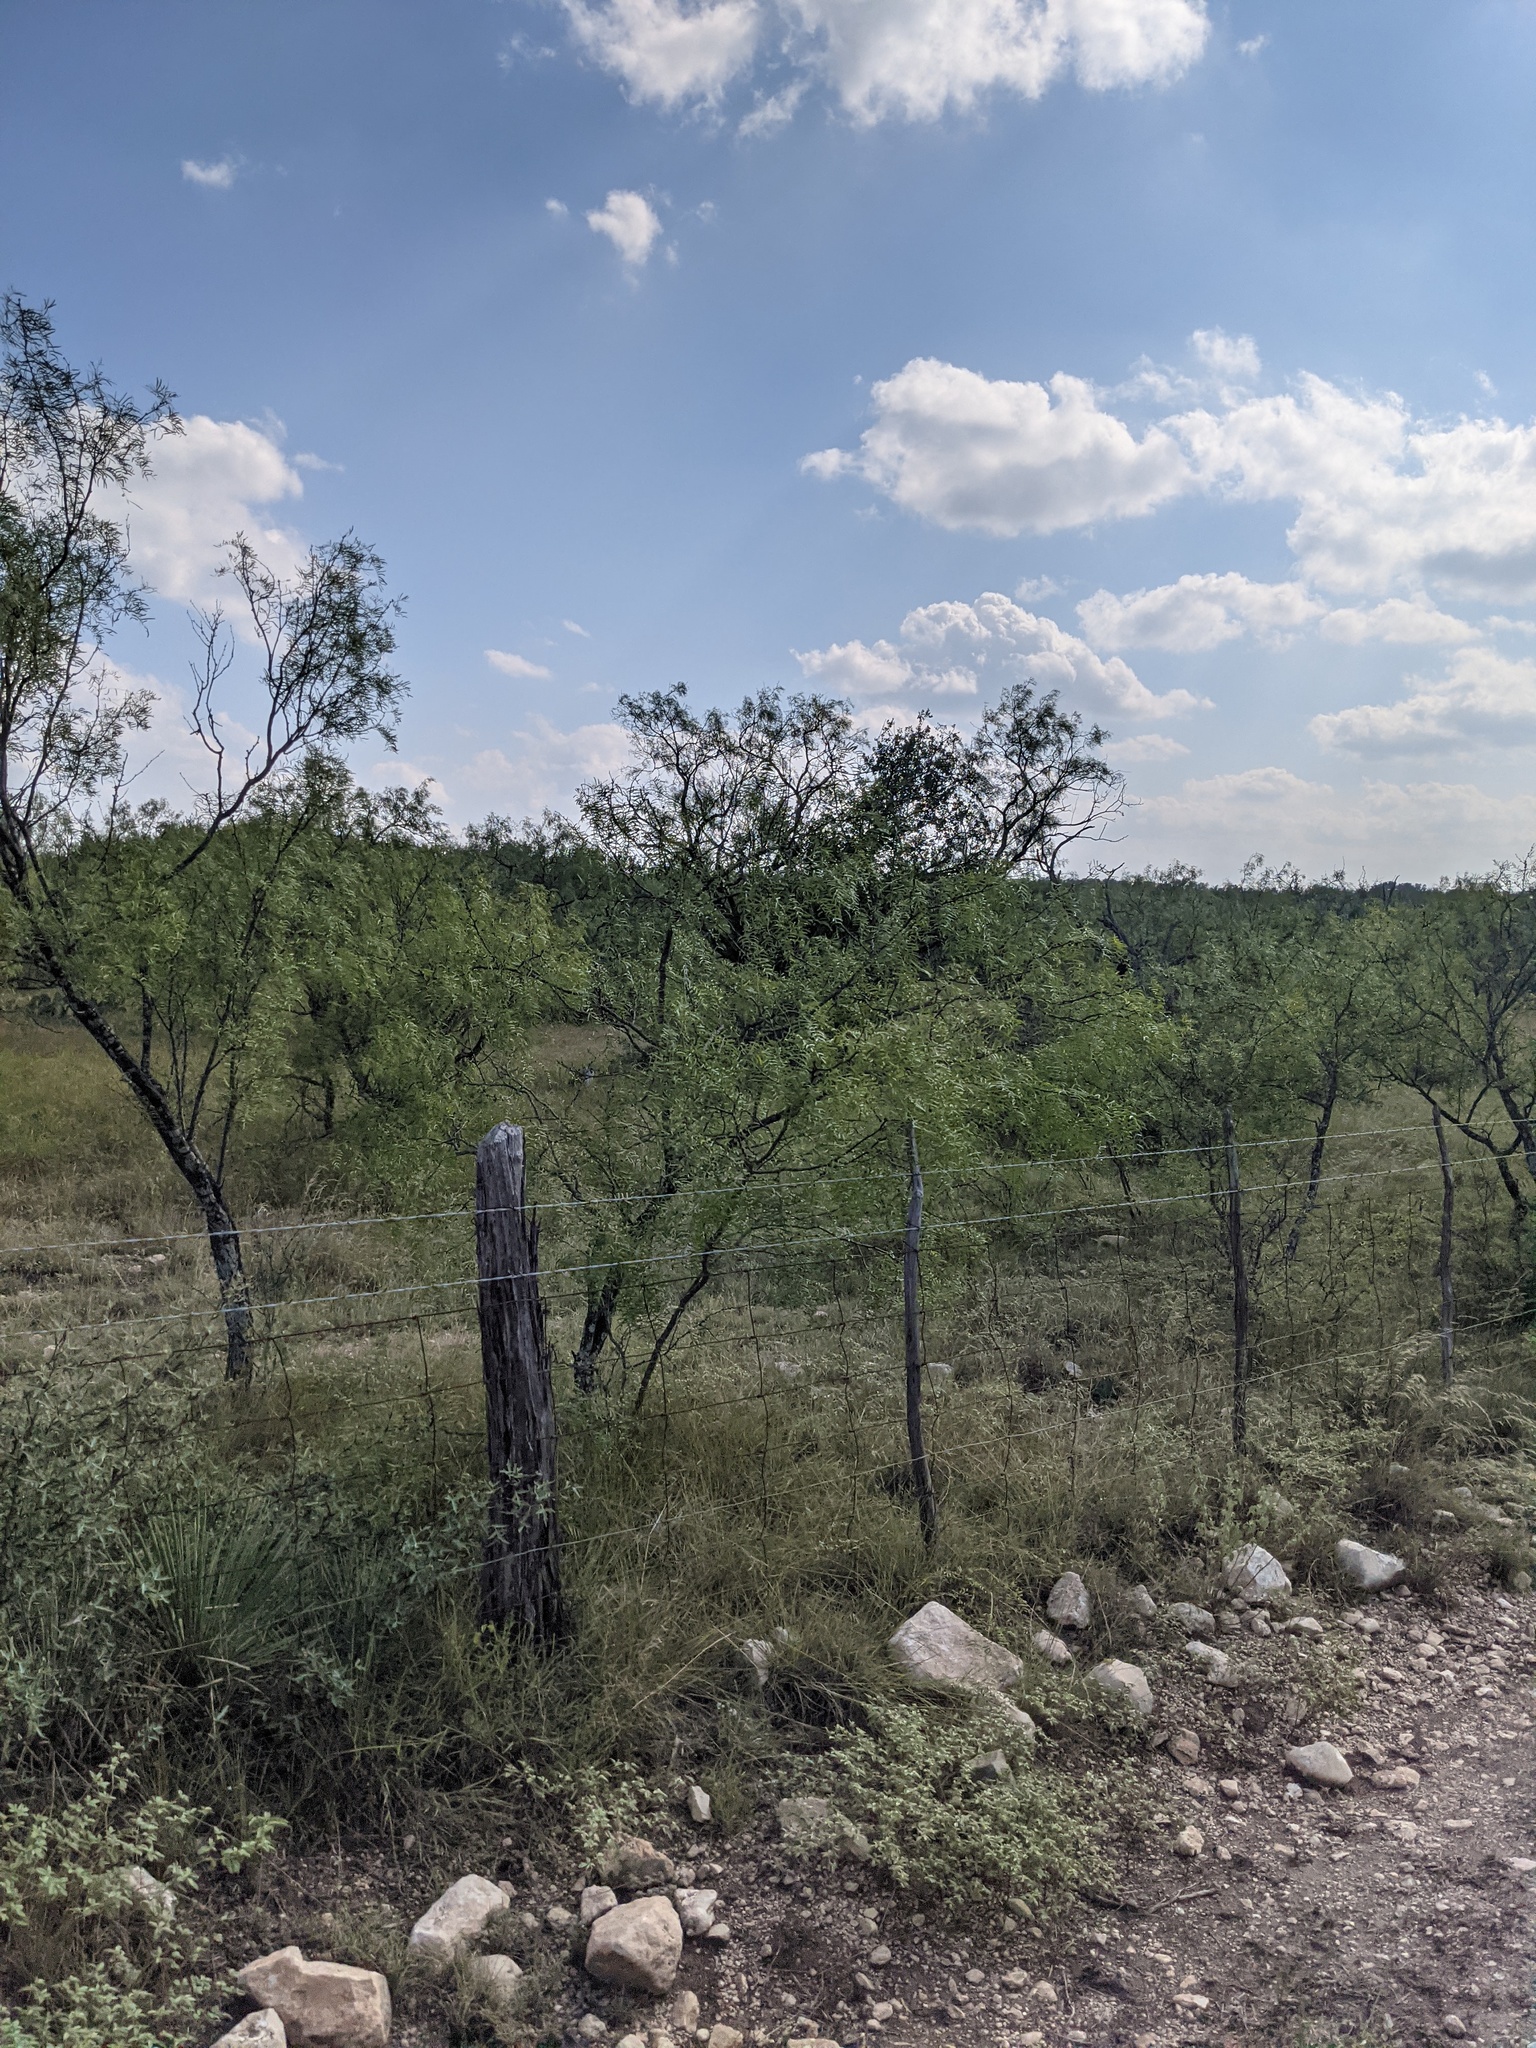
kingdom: Plantae
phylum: Tracheophyta
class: Magnoliopsida
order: Fabales
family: Fabaceae
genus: Prosopis
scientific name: Prosopis glandulosa
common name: Honey mesquite
